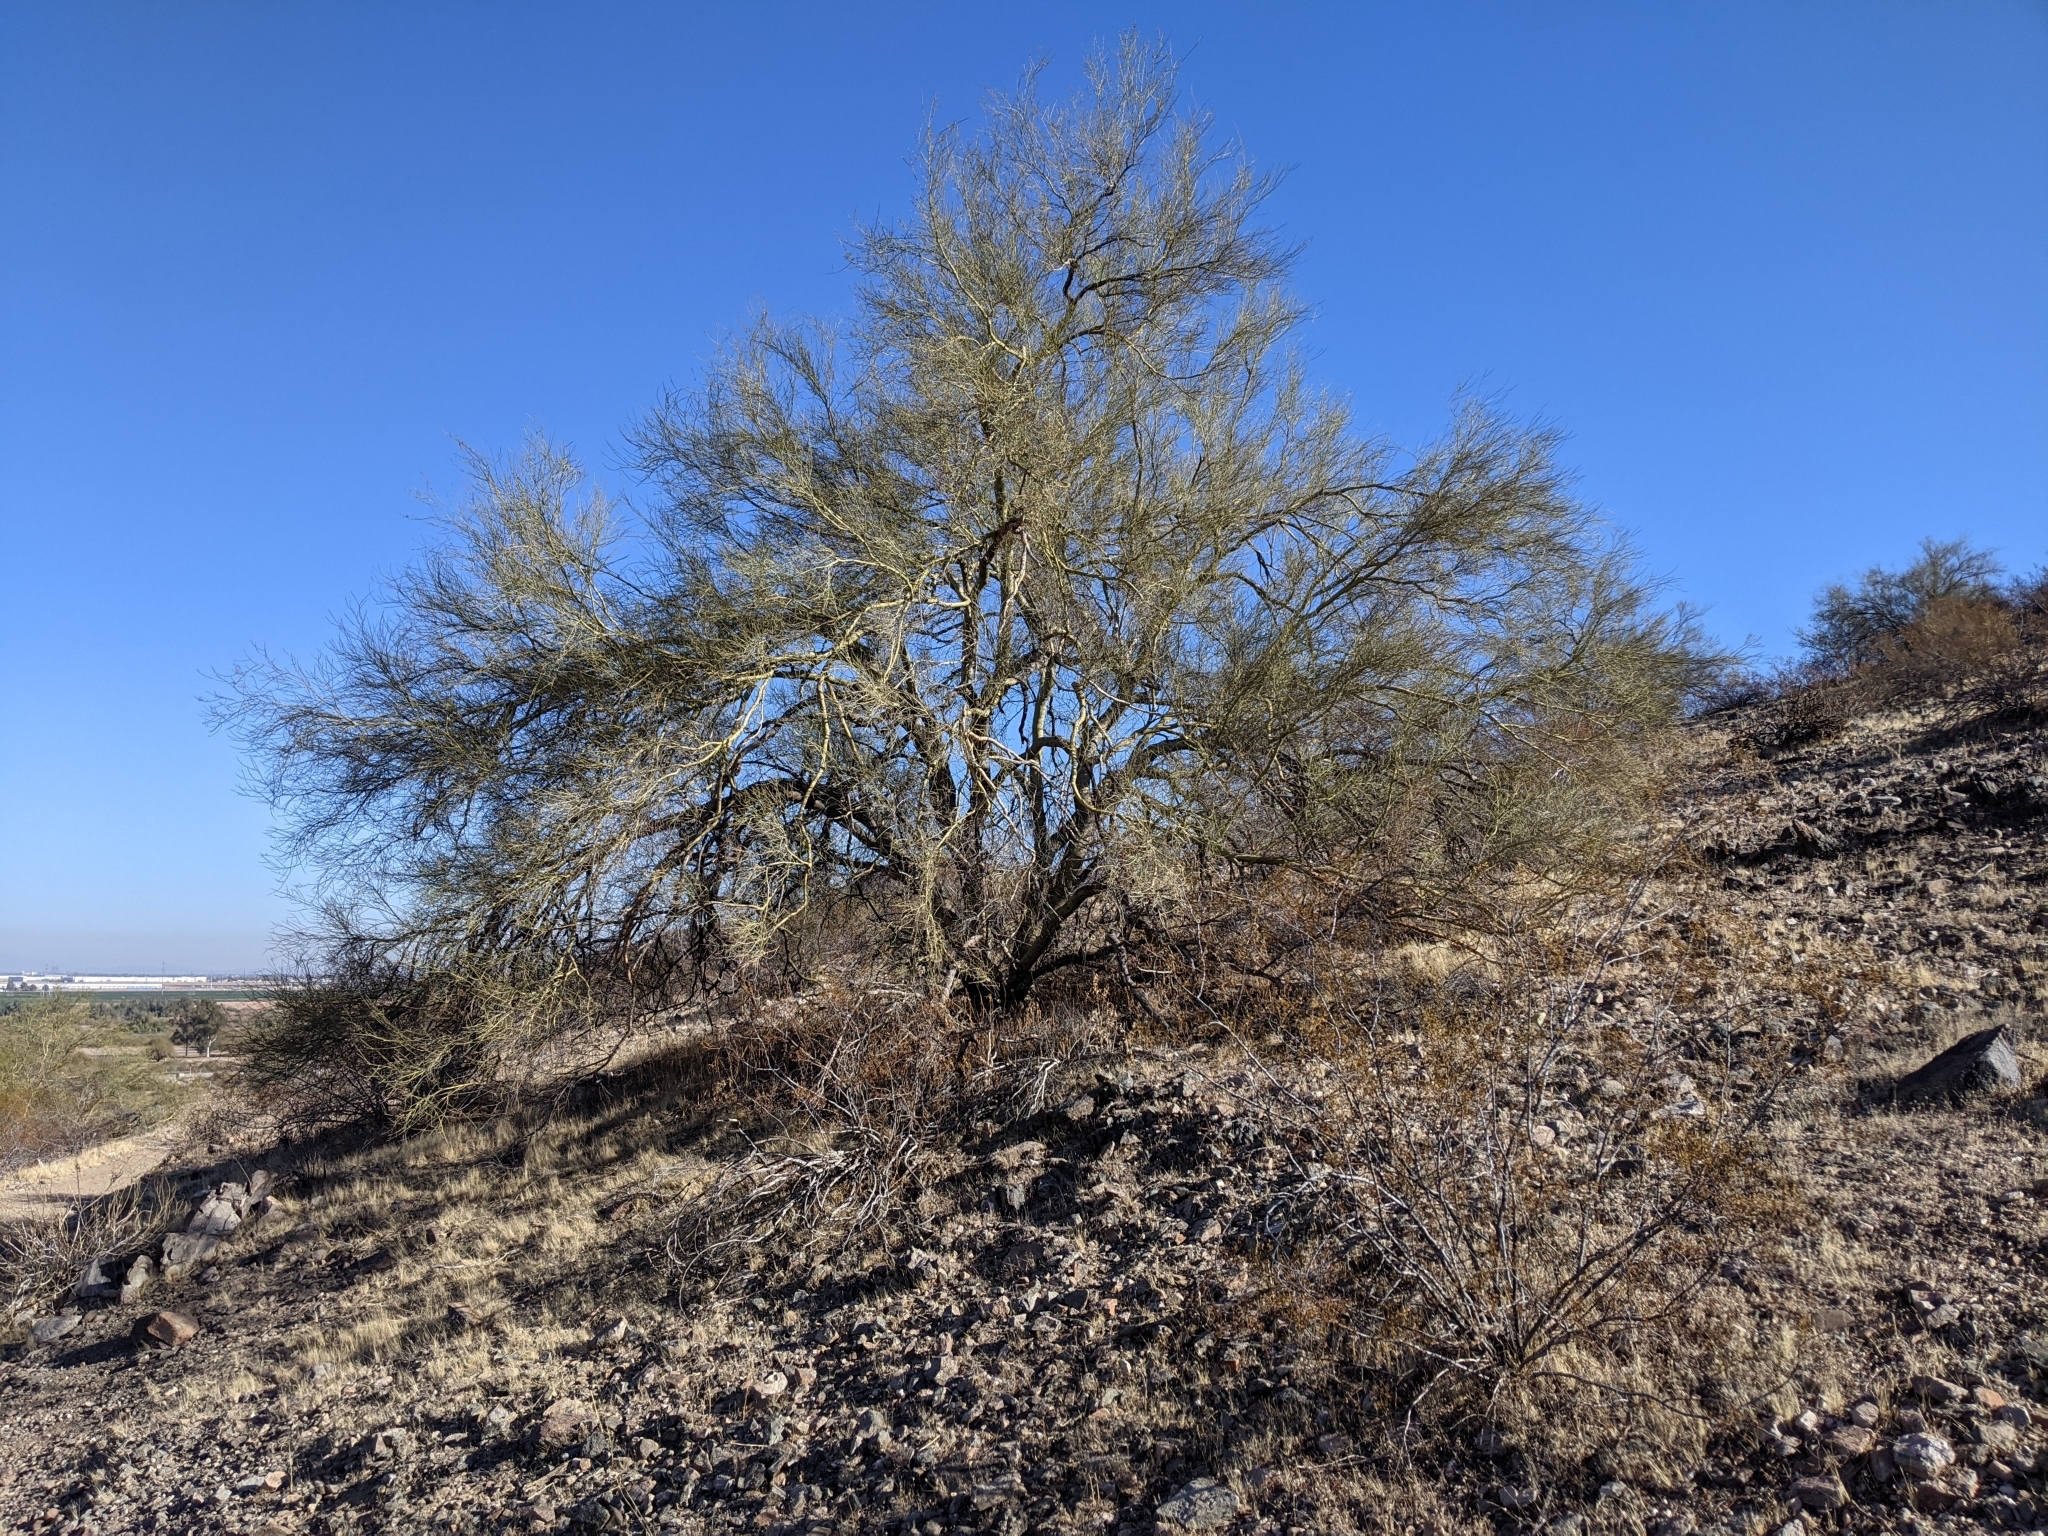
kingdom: Plantae
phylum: Tracheophyta
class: Magnoliopsida
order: Fabales
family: Fabaceae
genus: Parkinsonia
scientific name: Parkinsonia microphylla
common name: Yellow paloverde
